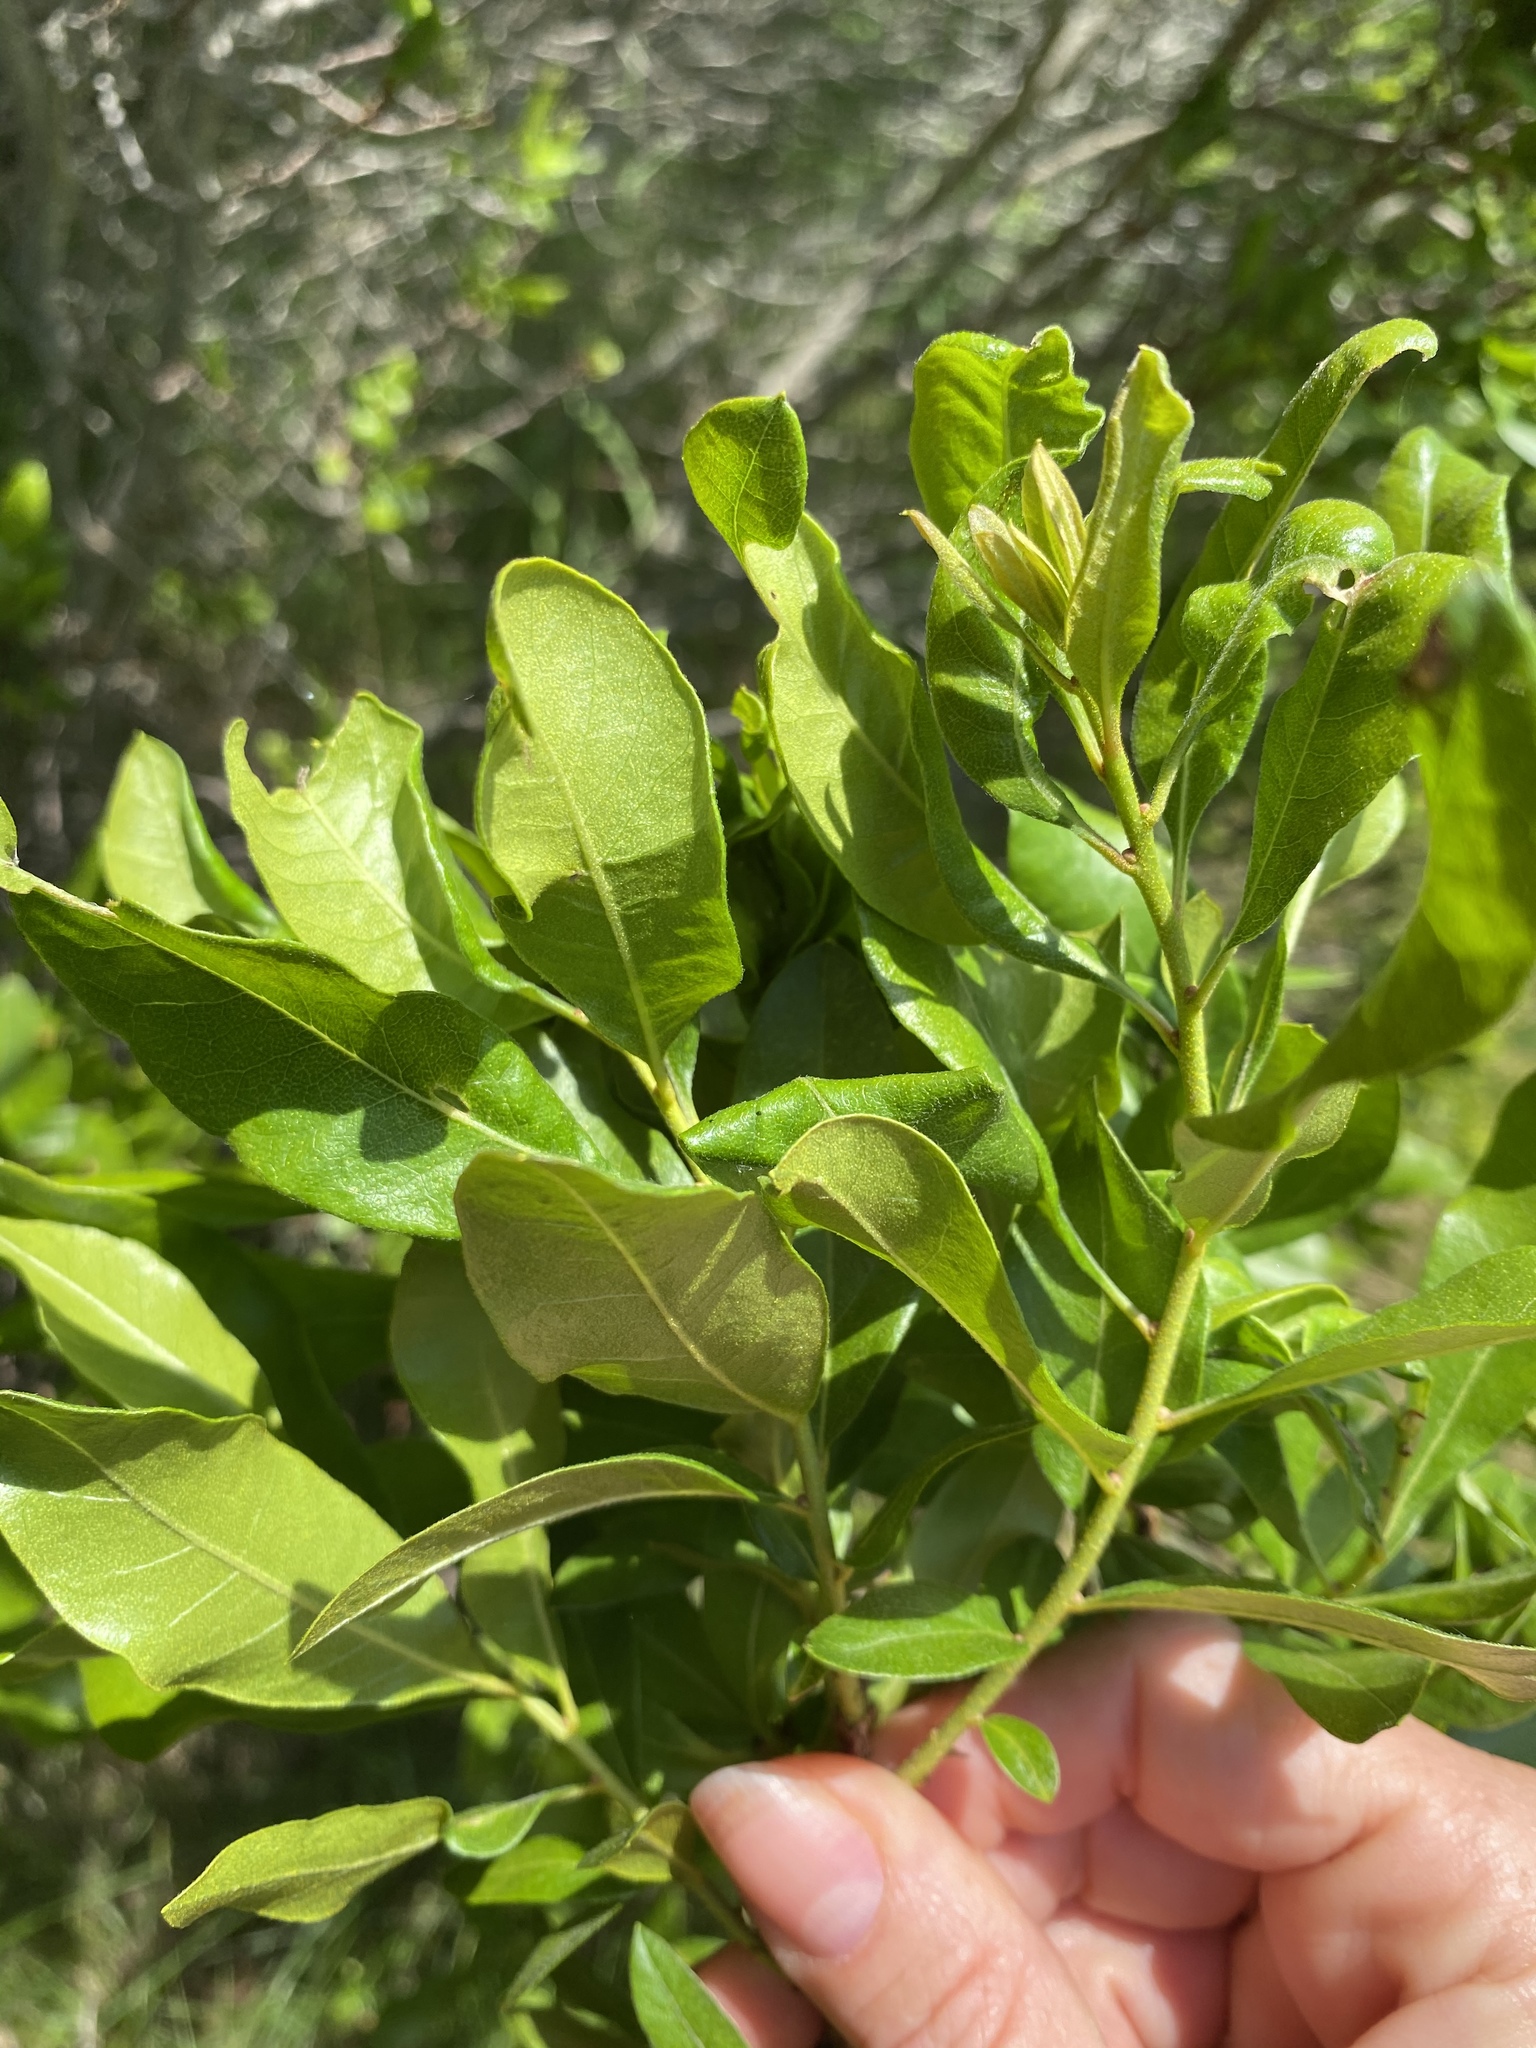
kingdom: Plantae
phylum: Tracheophyta
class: Magnoliopsida
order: Fagales
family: Myricaceae
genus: Morella
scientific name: Morella pensylvanica
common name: Northern bayberry
